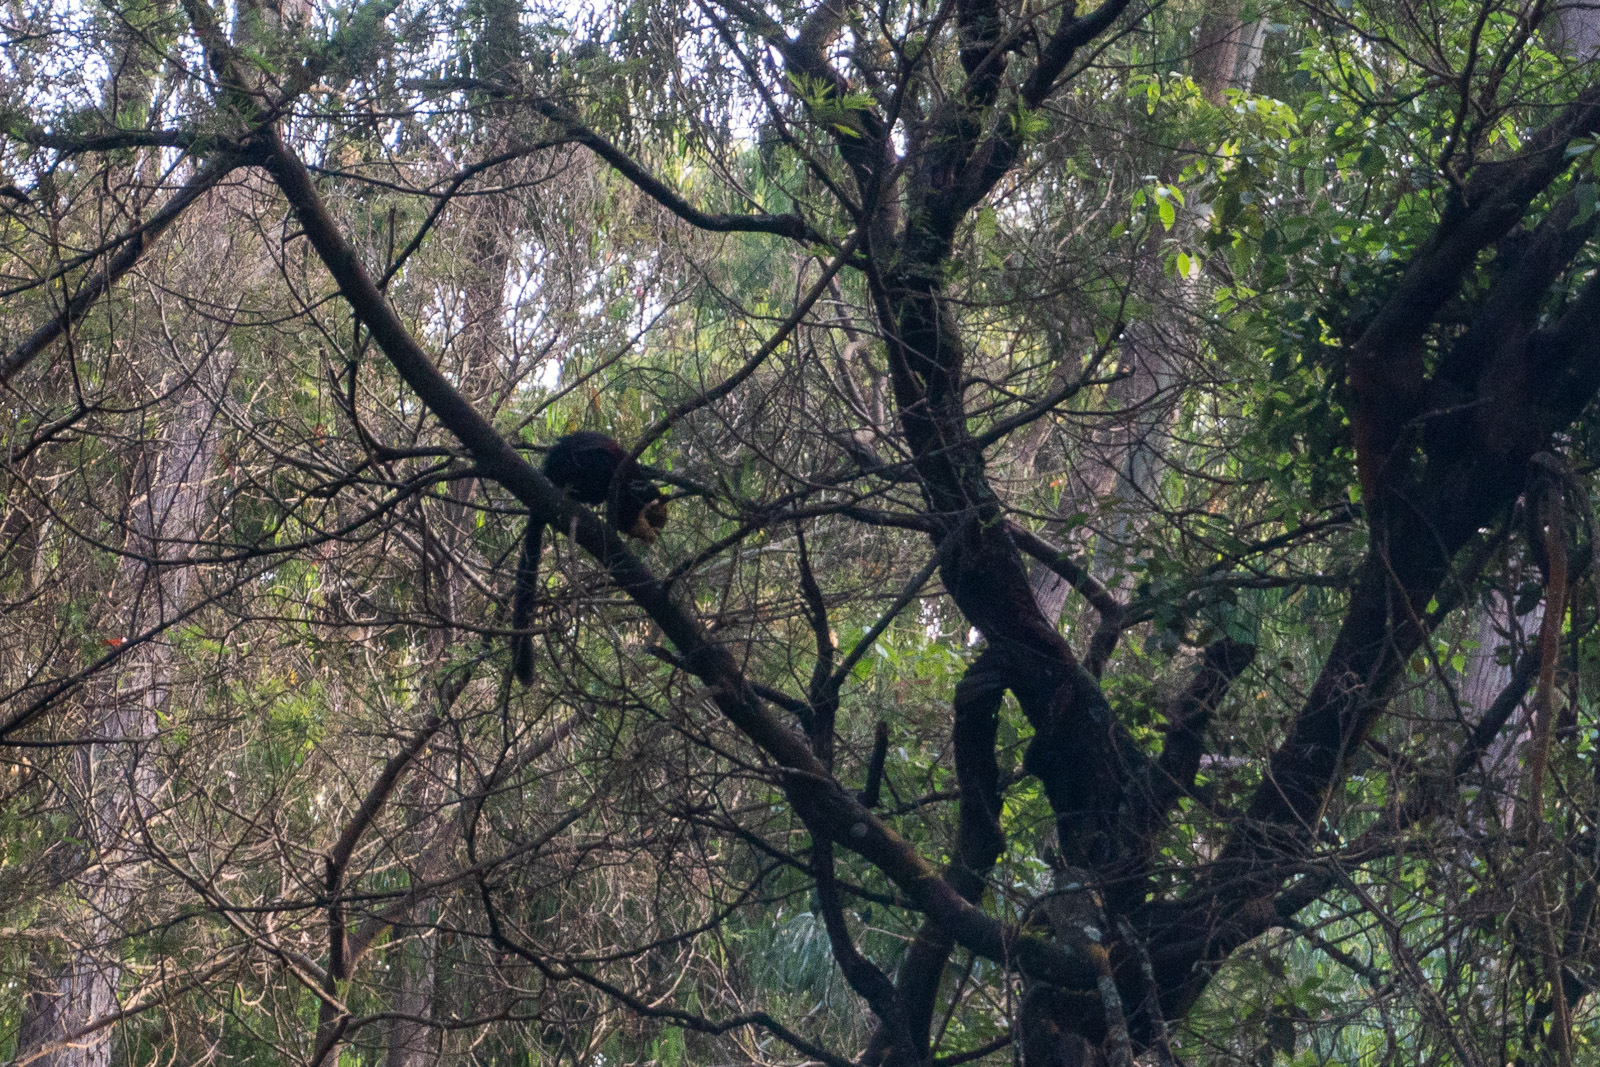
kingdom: Animalia
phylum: Chordata
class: Mammalia
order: Rodentia
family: Sciuridae
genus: Ratufa
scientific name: Ratufa indica
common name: Indian giant squirrel
